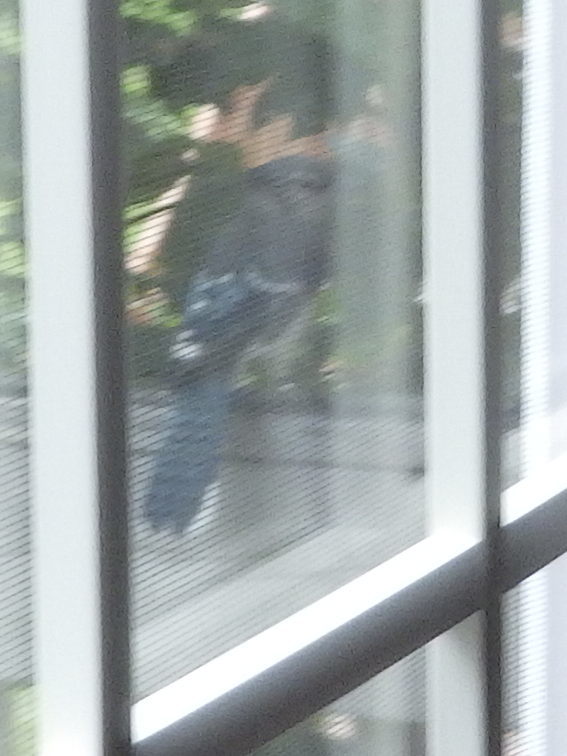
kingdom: Animalia
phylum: Chordata
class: Aves
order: Passeriformes
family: Corvidae
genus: Cyanocitta
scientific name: Cyanocitta cristata
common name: Blue jay
